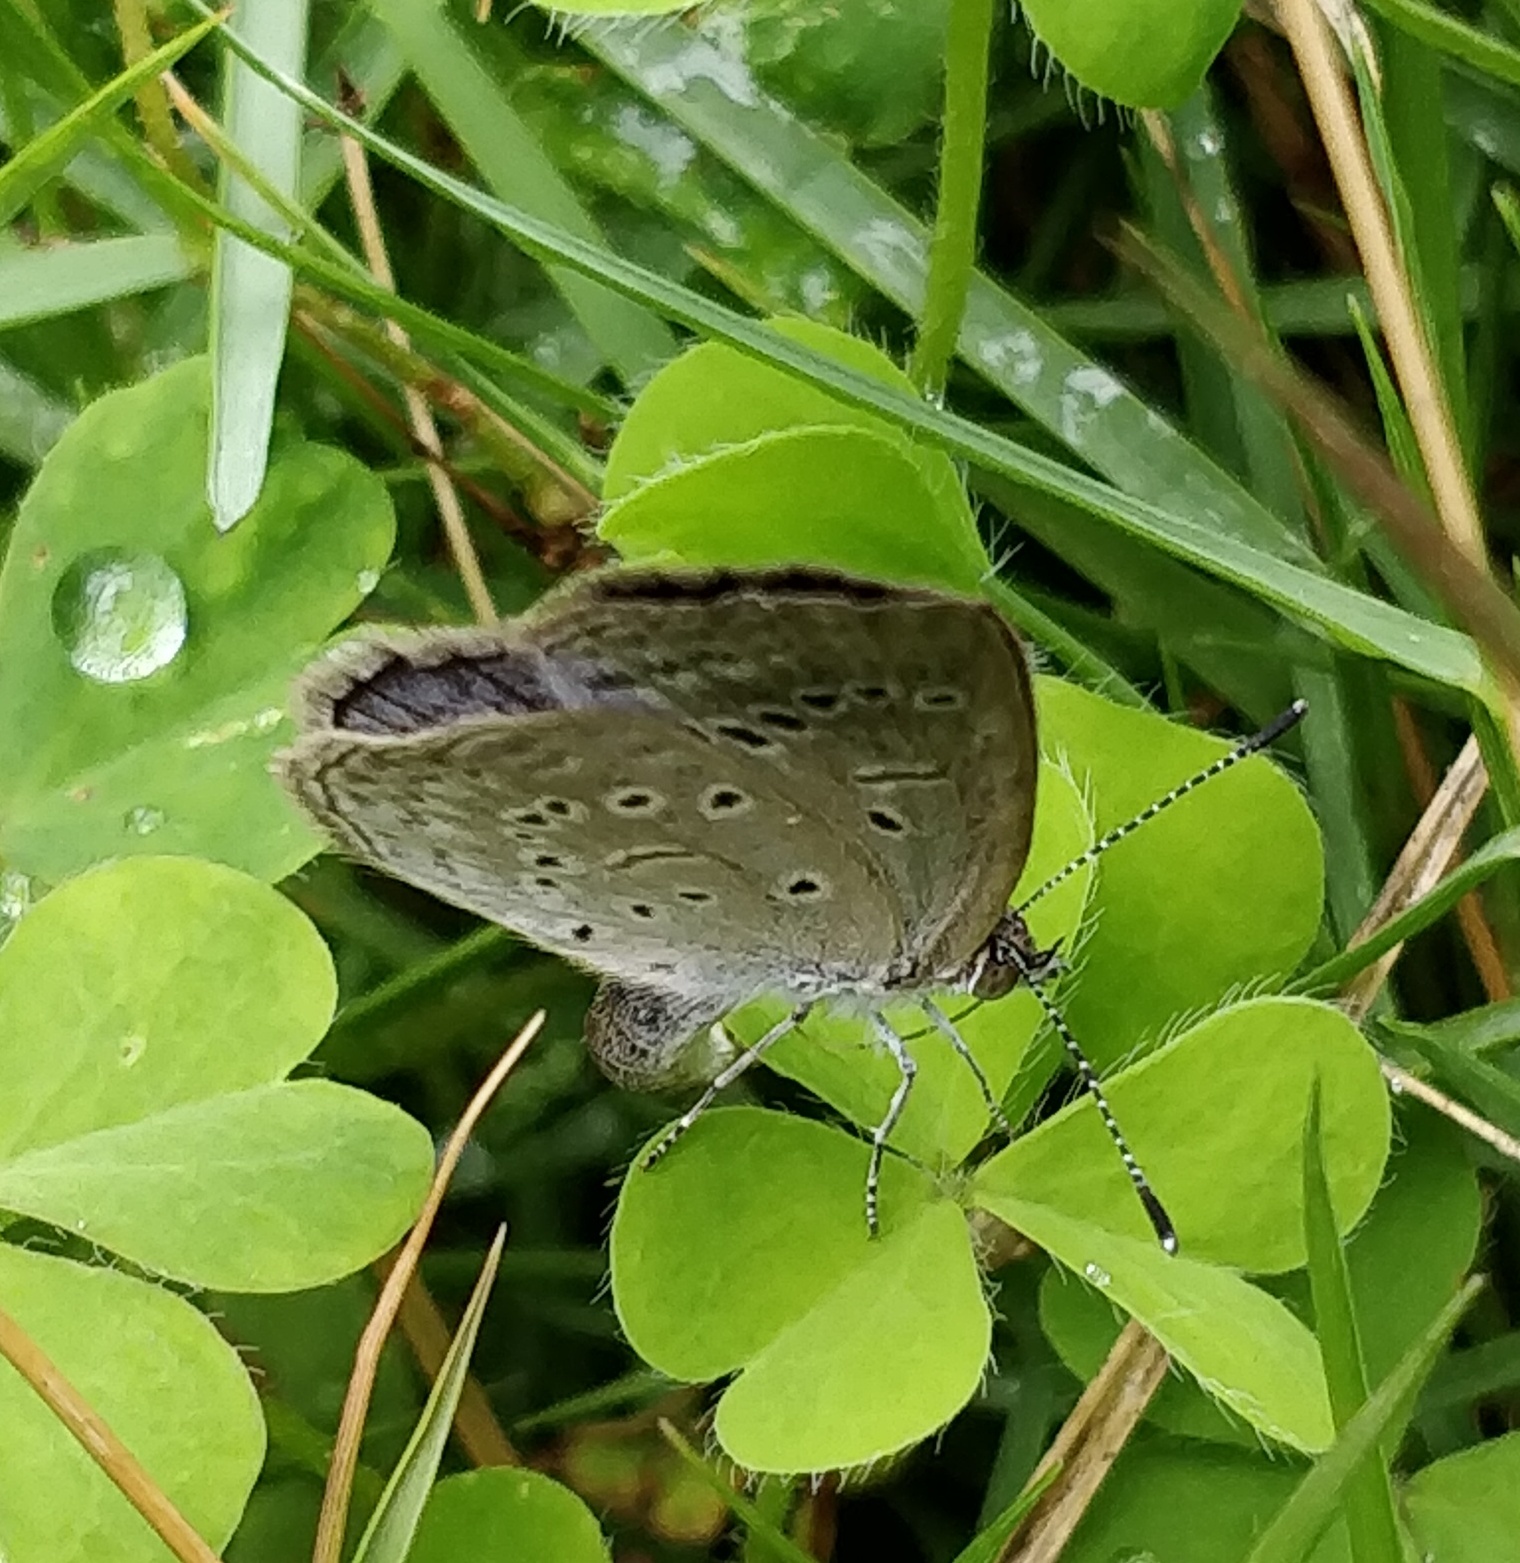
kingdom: Animalia
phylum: Arthropoda
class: Insecta
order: Lepidoptera
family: Lycaenidae
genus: Pseudozizeeria
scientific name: Pseudozizeeria maha
